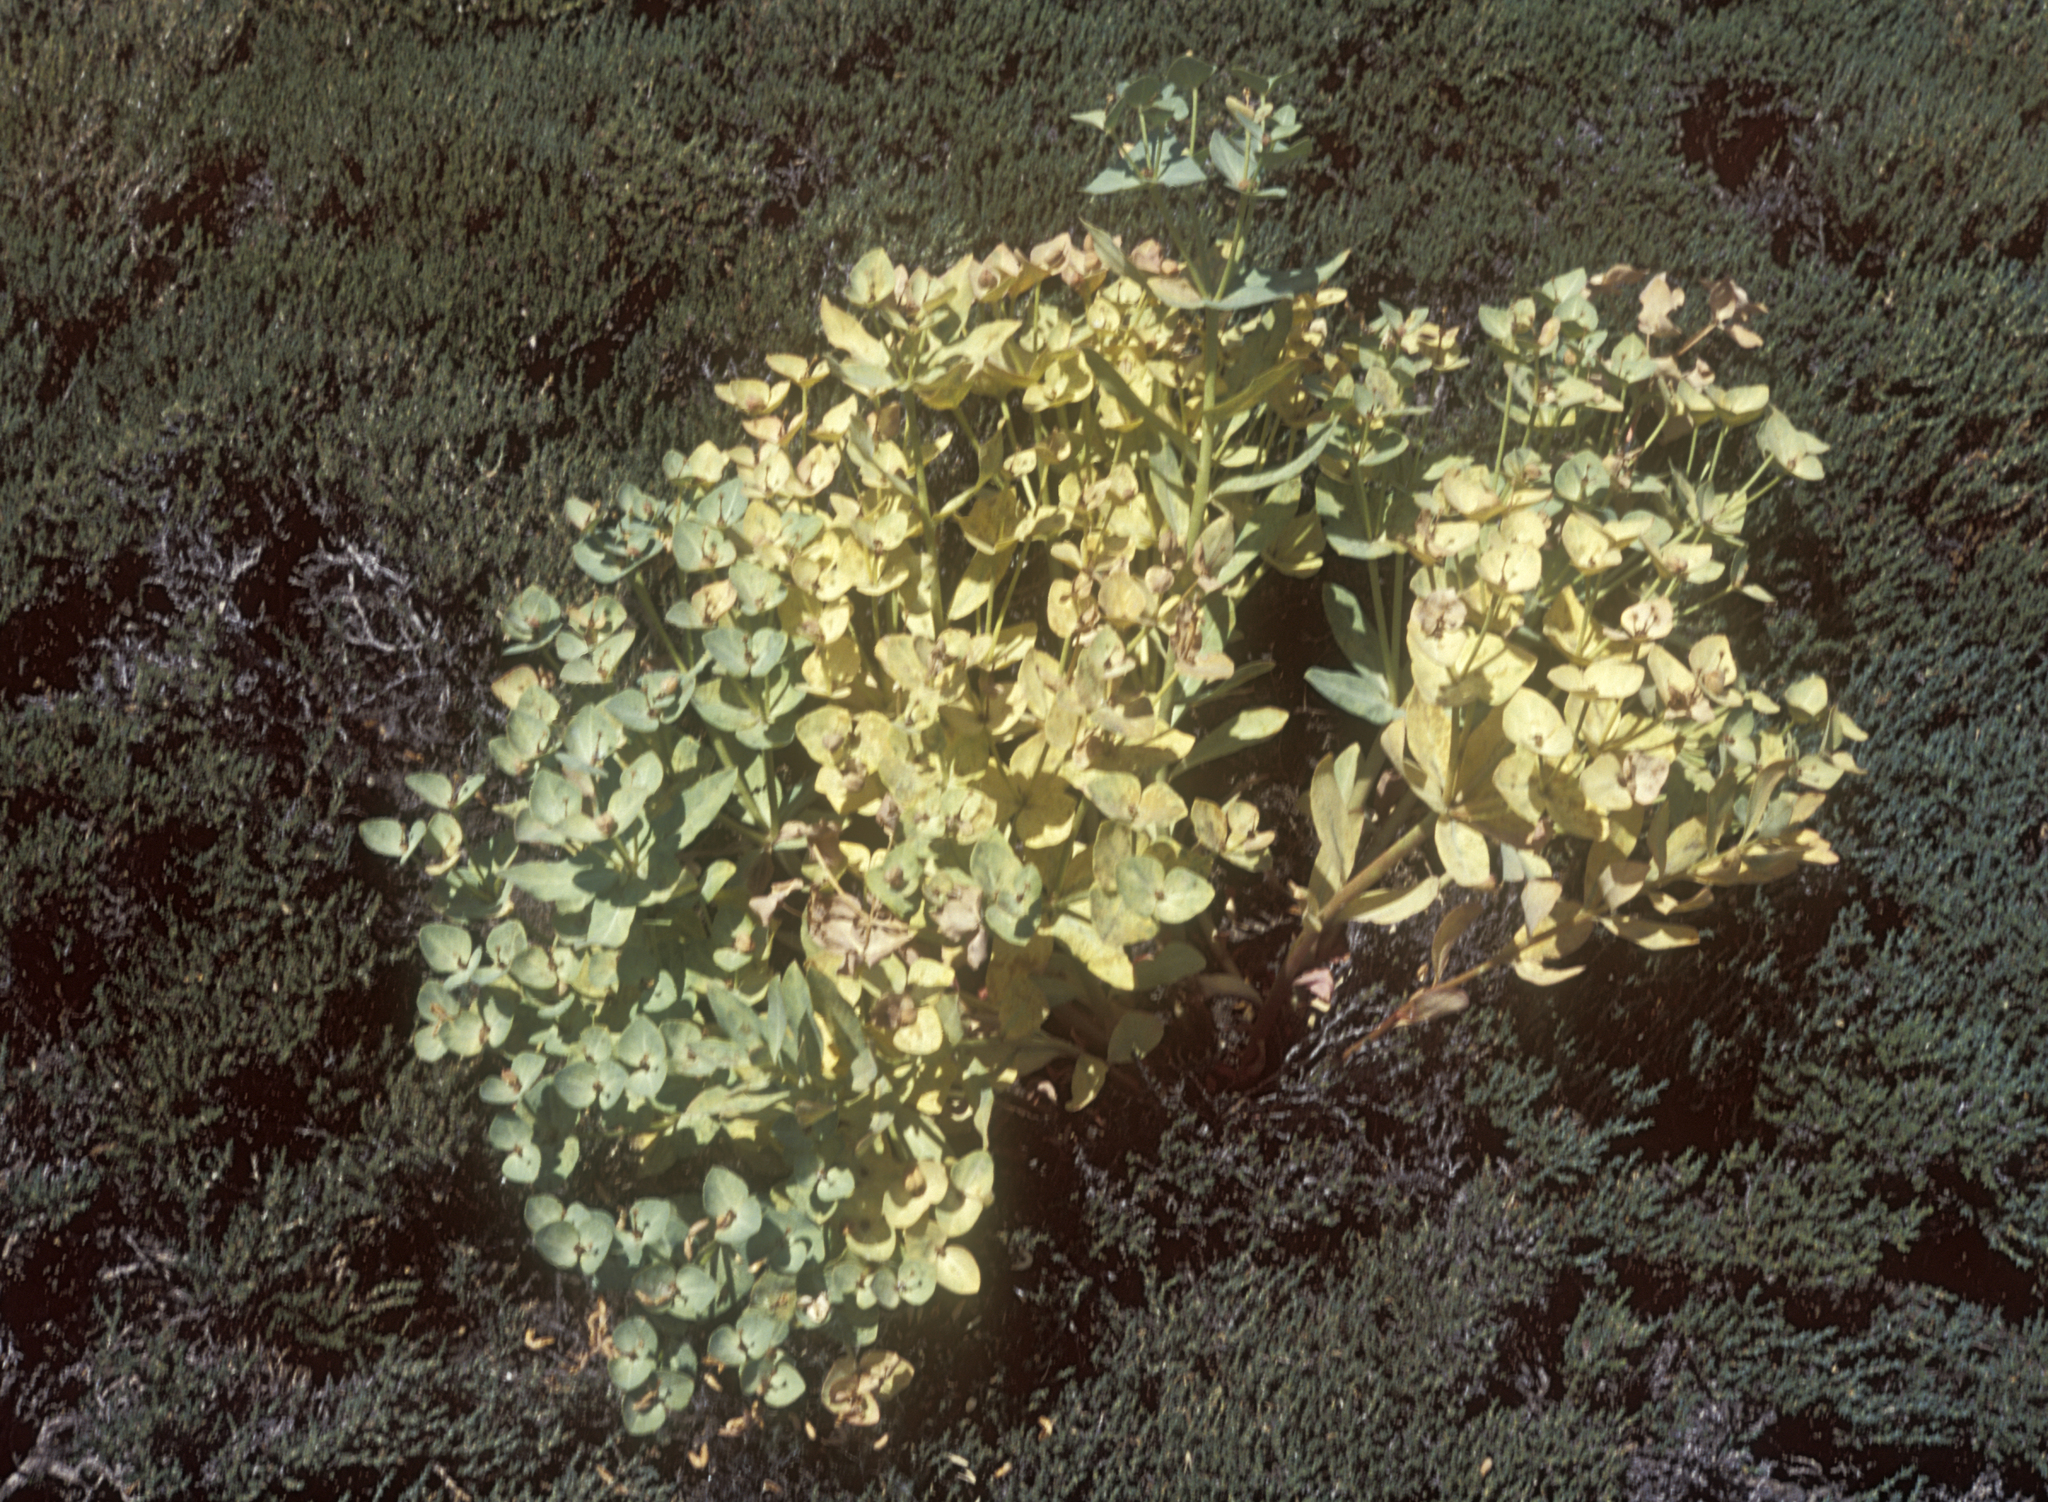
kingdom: Plantae
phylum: Tracheophyta
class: Magnoliopsida
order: Malpighiales
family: Euphorbiaceae
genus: Euphorbia
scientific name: Euphorbia mongolica
